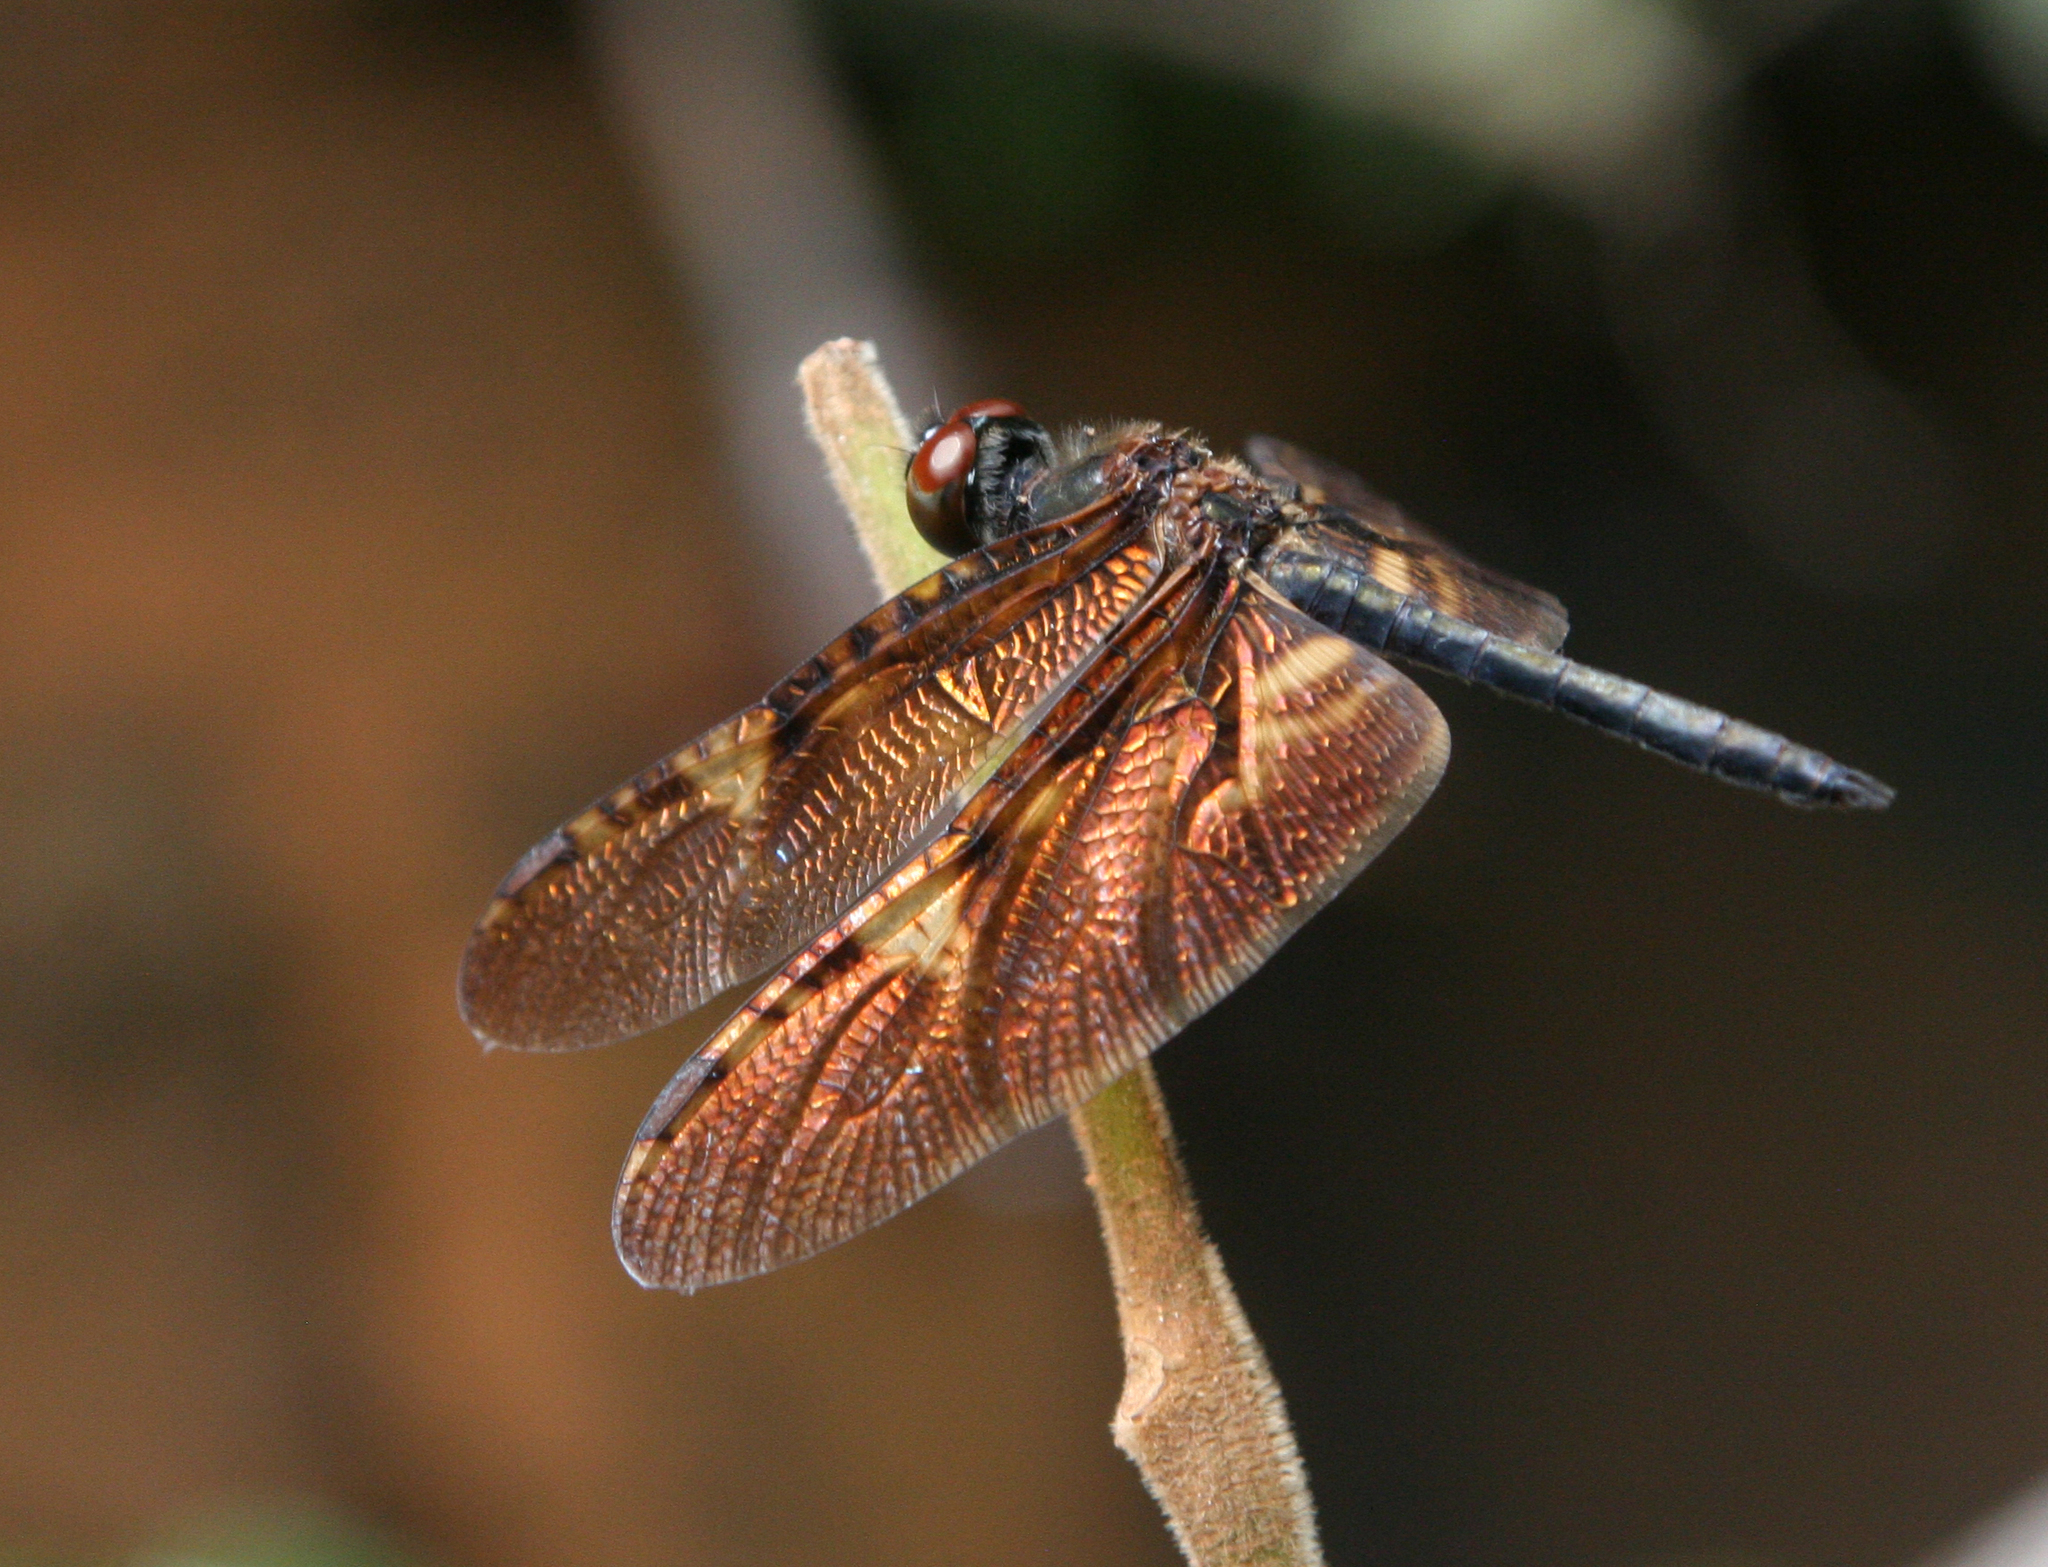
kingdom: Animalia
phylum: Arthropoda
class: Insecta
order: Odonata
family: Libellulidae
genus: Rhyothemis
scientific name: Rhyothemis obsolescens
